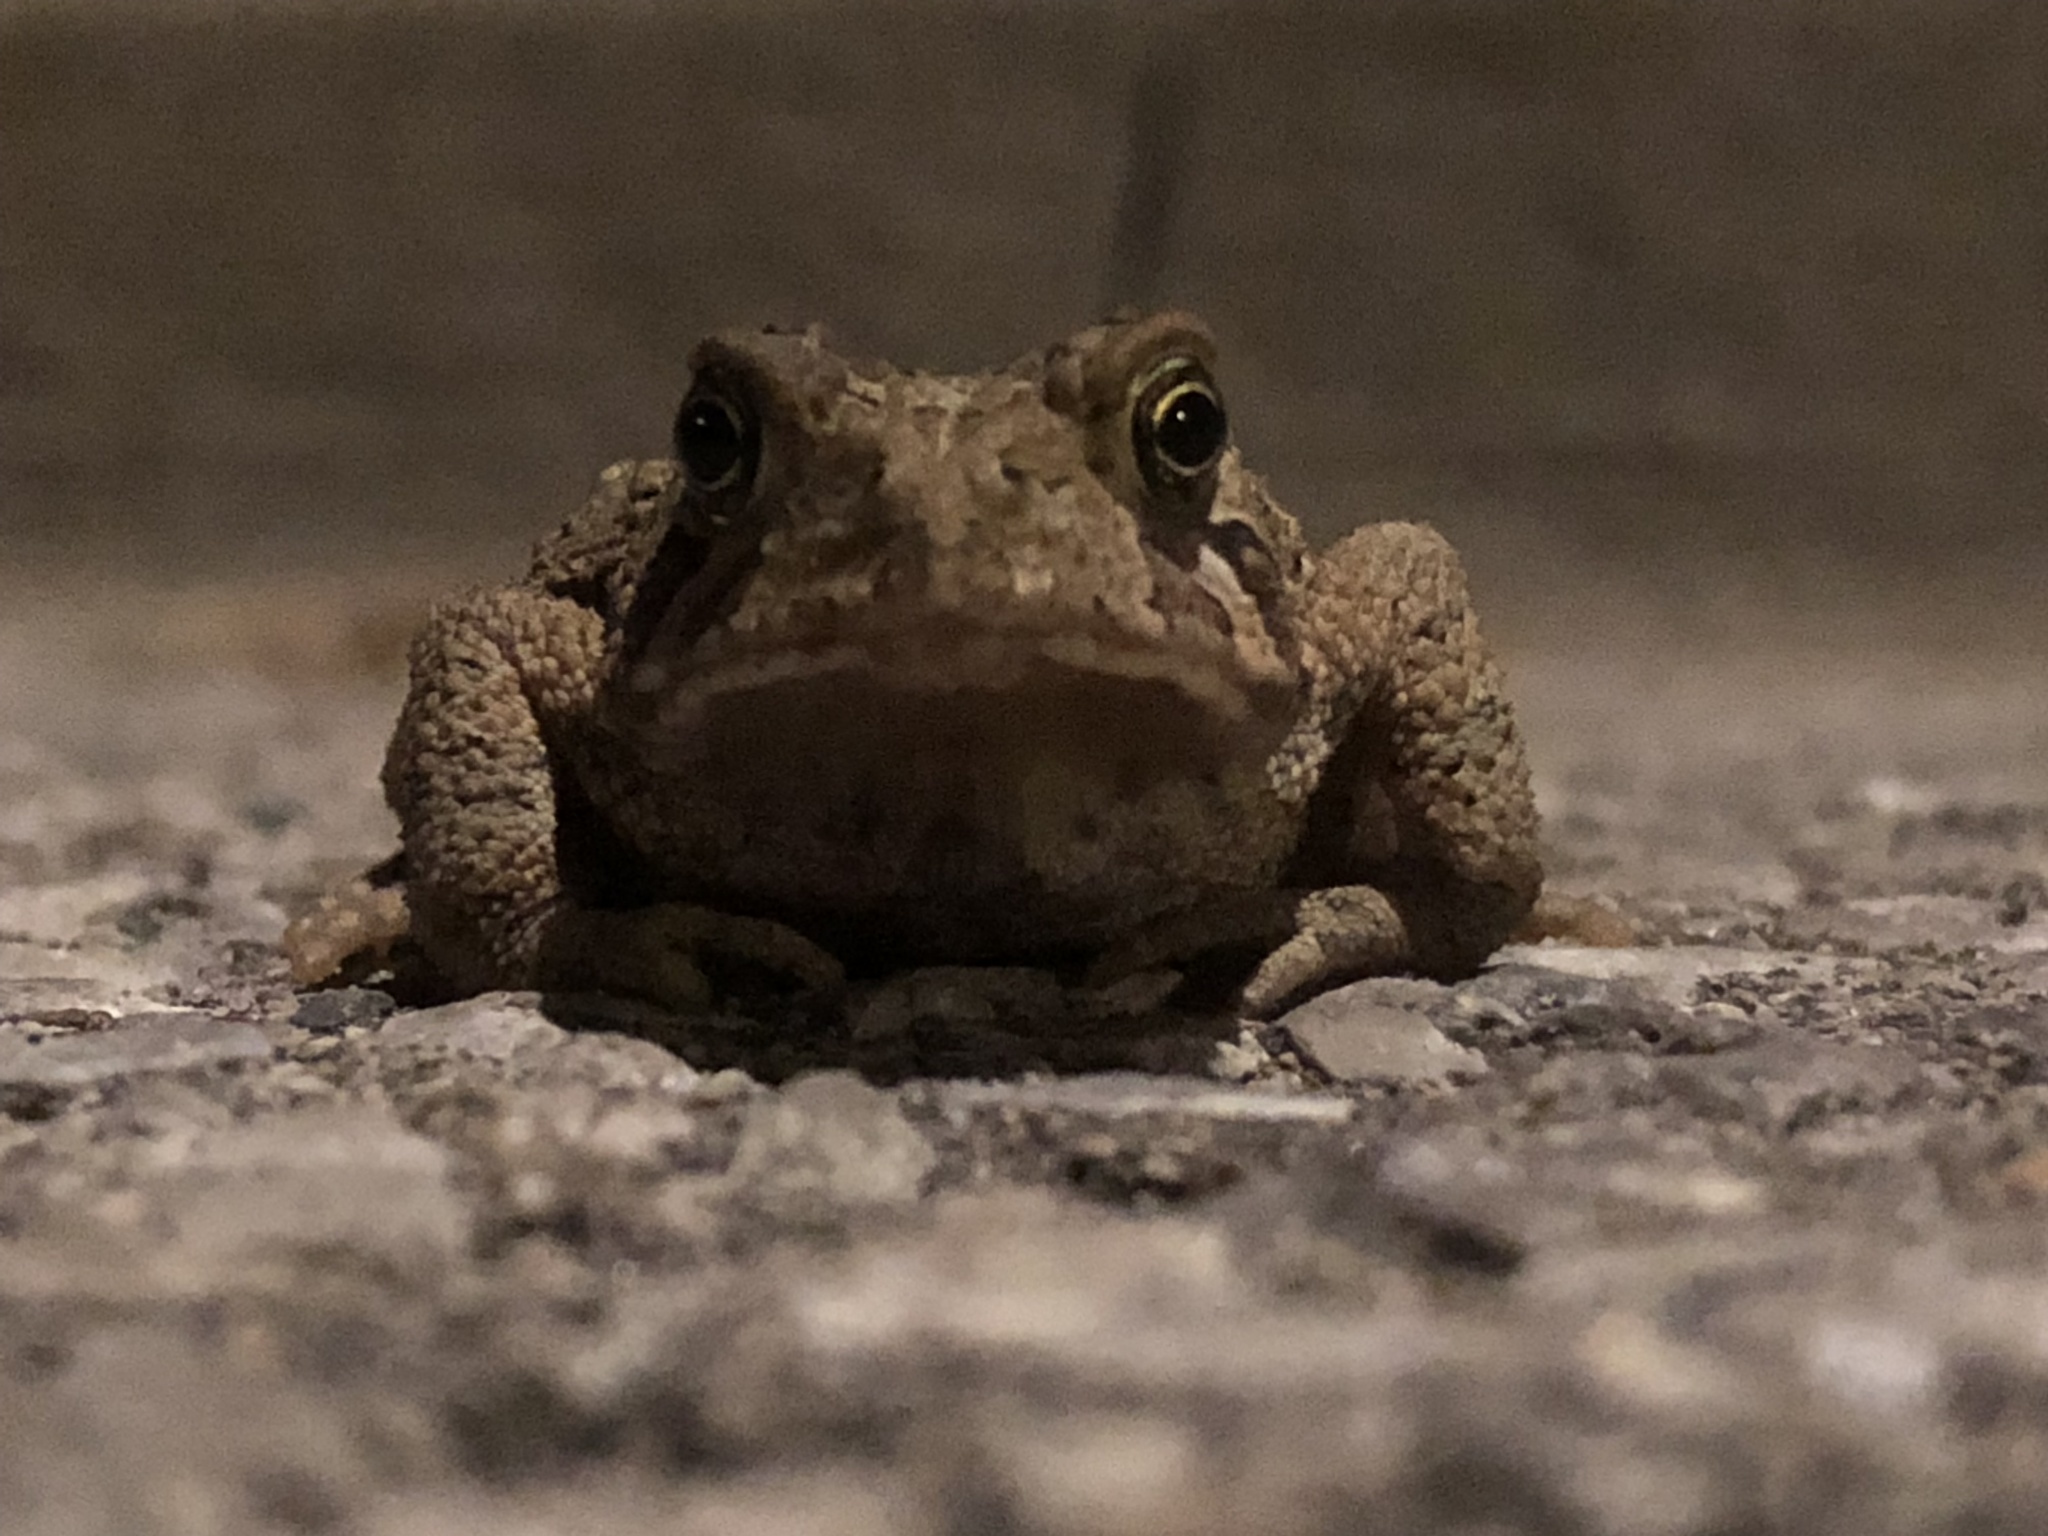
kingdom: Animalia
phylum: Chordata
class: Amphibia
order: Anura
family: Bufonidae
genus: Anaxyrus
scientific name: Anaxyrus americanus
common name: American toad
